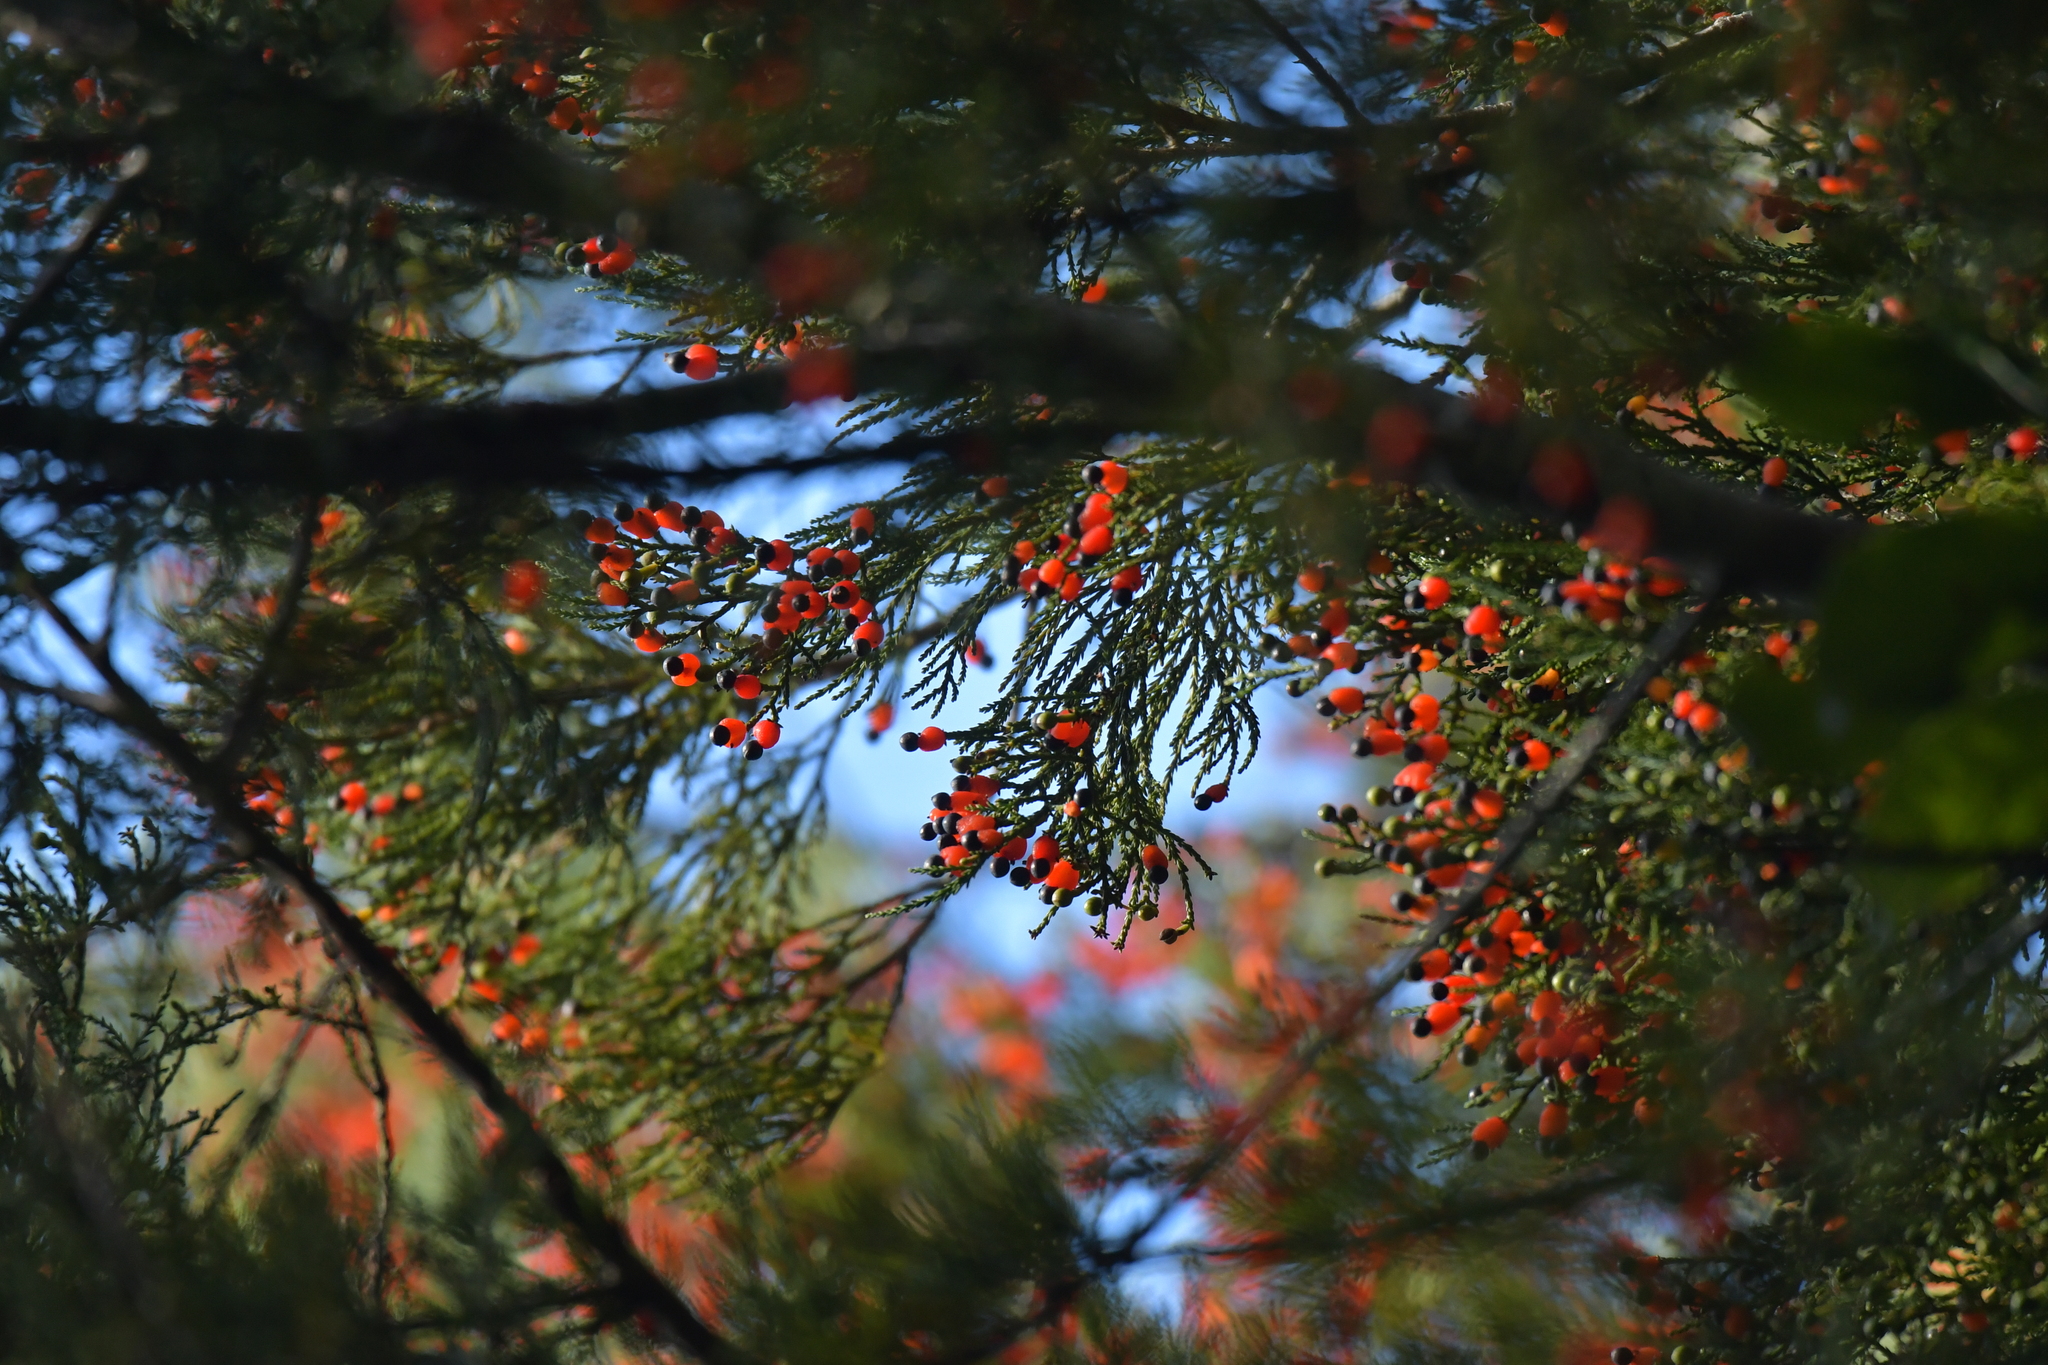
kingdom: Plantae
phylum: Tracheophyta
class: Pinopsida
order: Pinales
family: Podocarpaceae
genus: Dacrycarpus
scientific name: Dacrycarpus dacrydioides
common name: White pine
